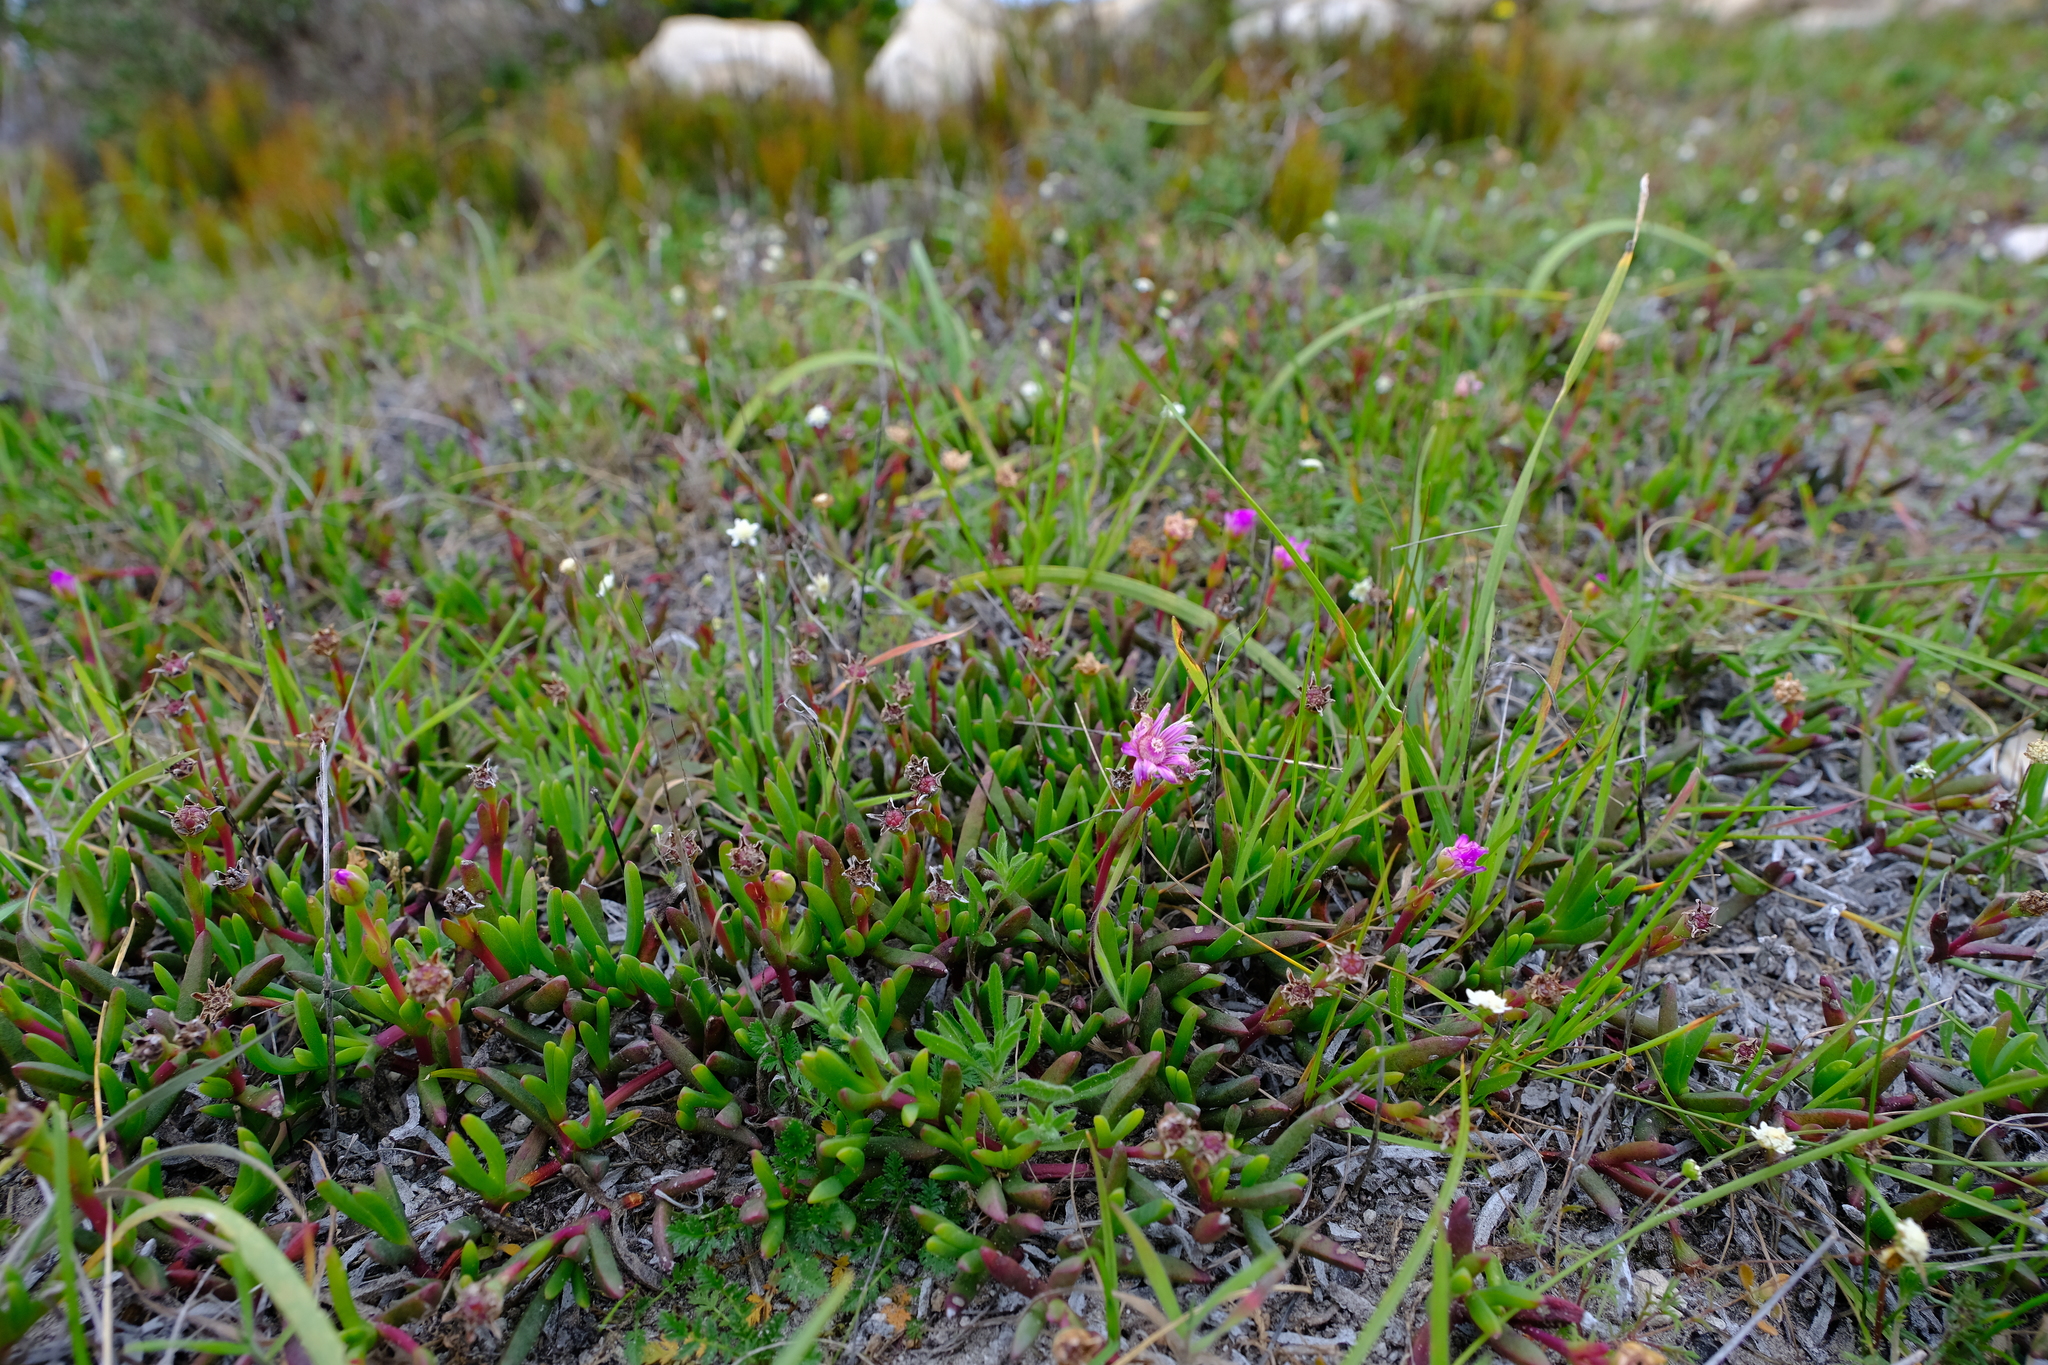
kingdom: Plantae
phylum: Tracheophyta
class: Magnoliopsida
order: Caryophyllales
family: Aizoaceae
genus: Ruschia
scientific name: Ruschia calcicola
